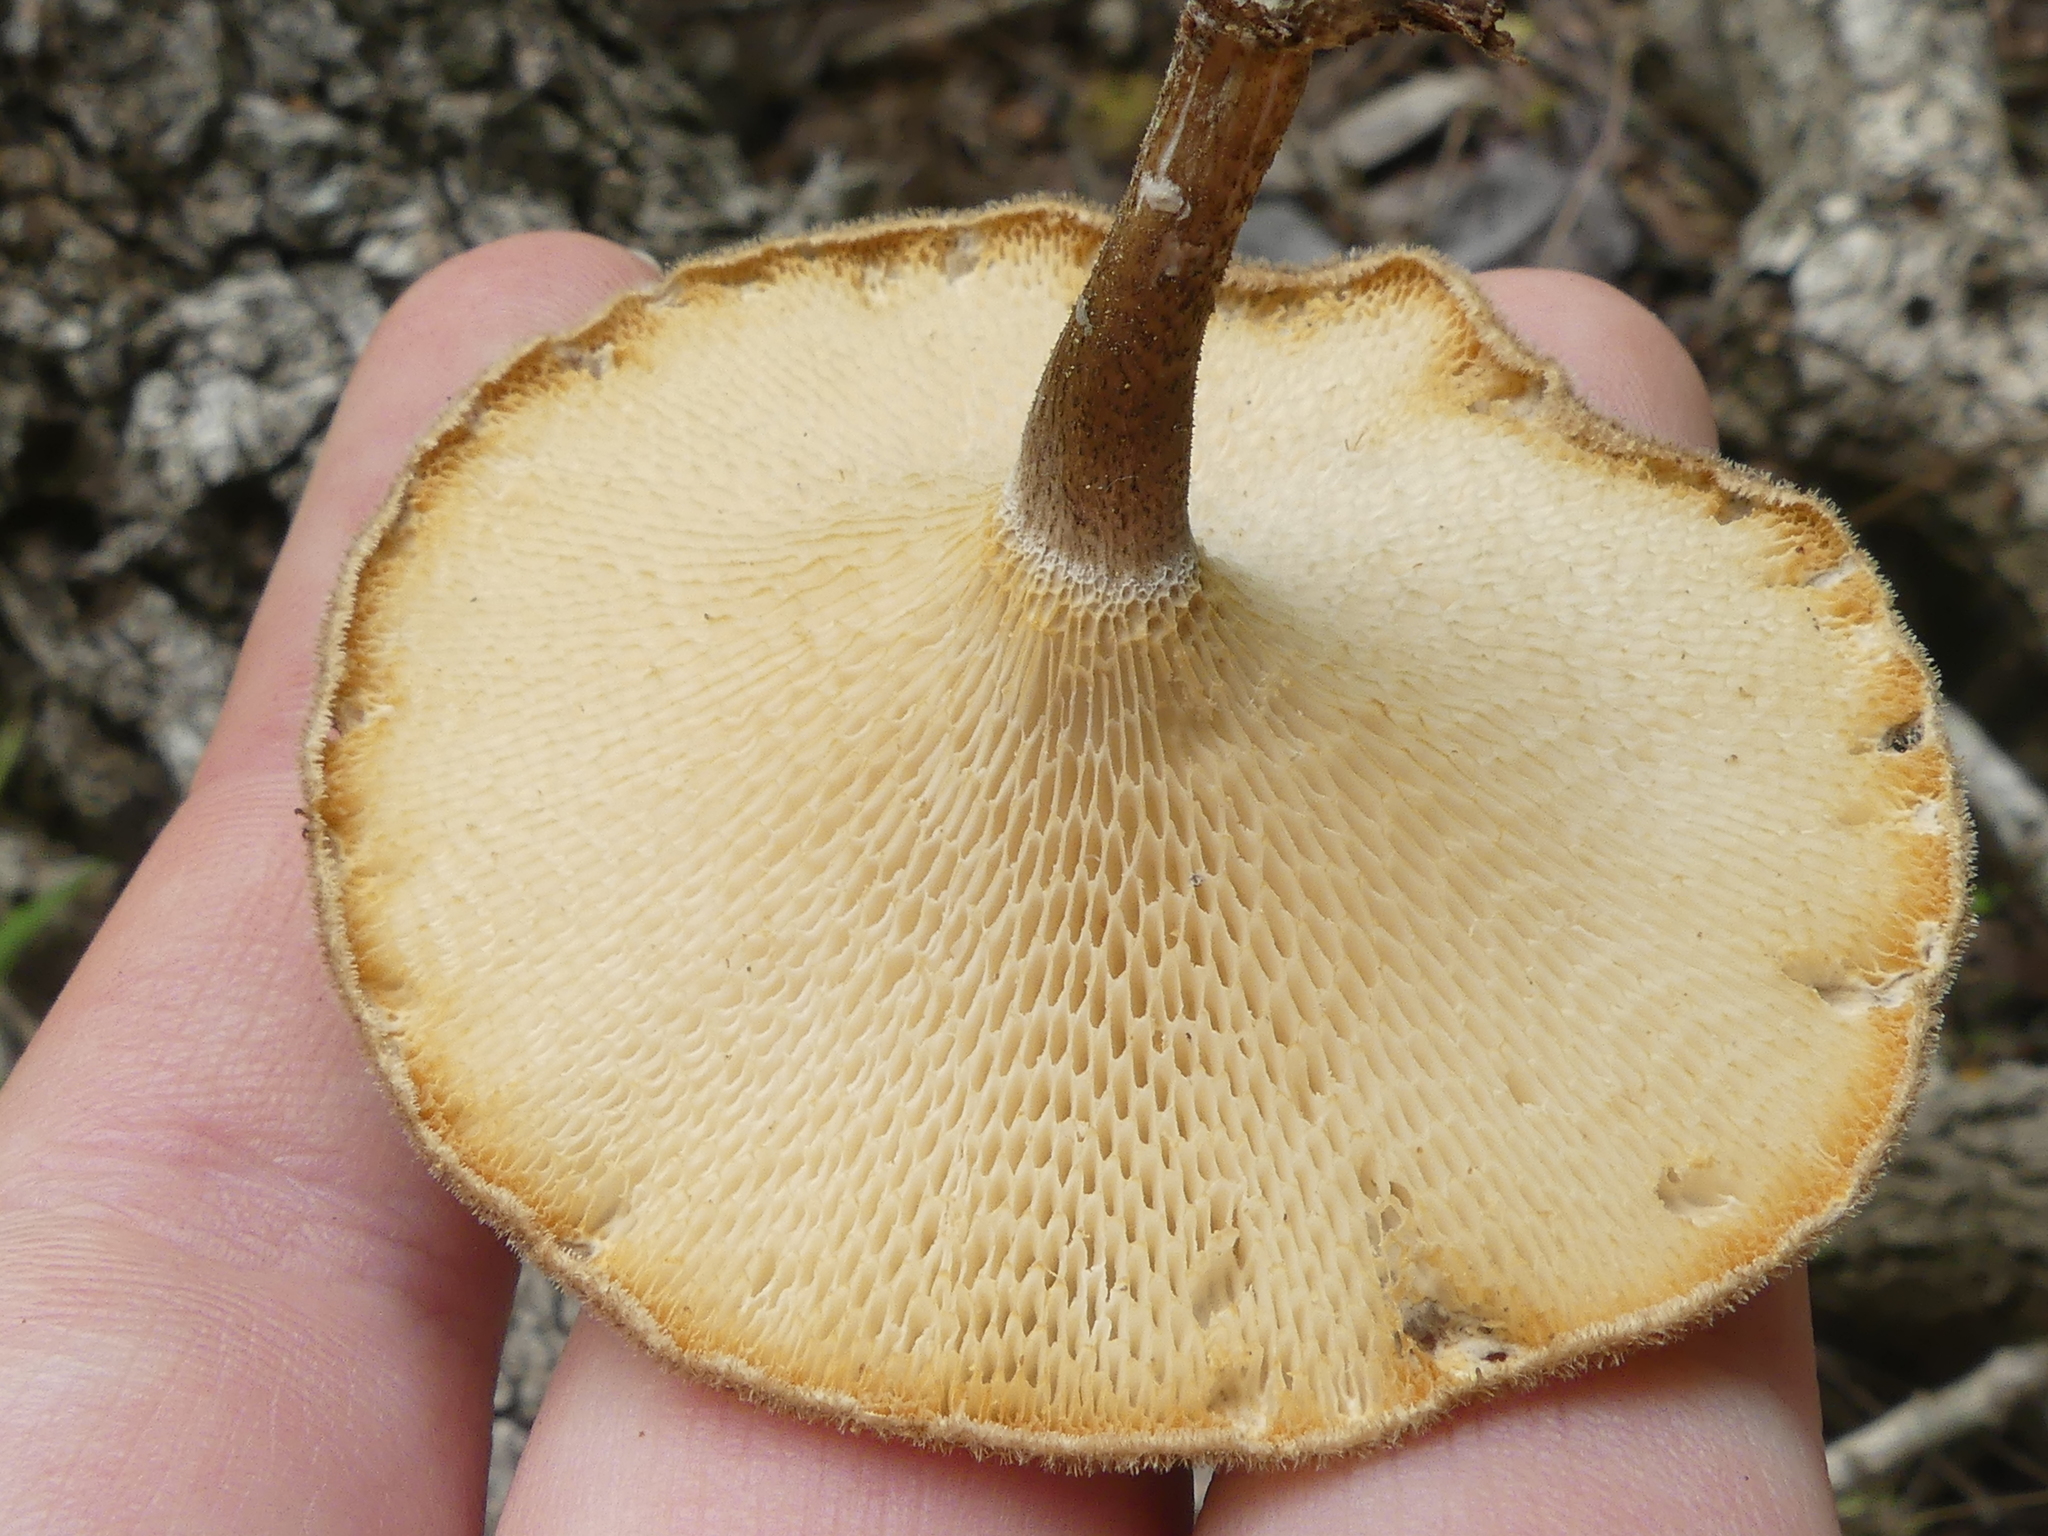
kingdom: Fungi
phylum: Basidiomycota
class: Agaricomycetes
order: Polyporales
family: Polyporaceae
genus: Lentinus
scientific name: Lentinus arcularius
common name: Spring polypore
